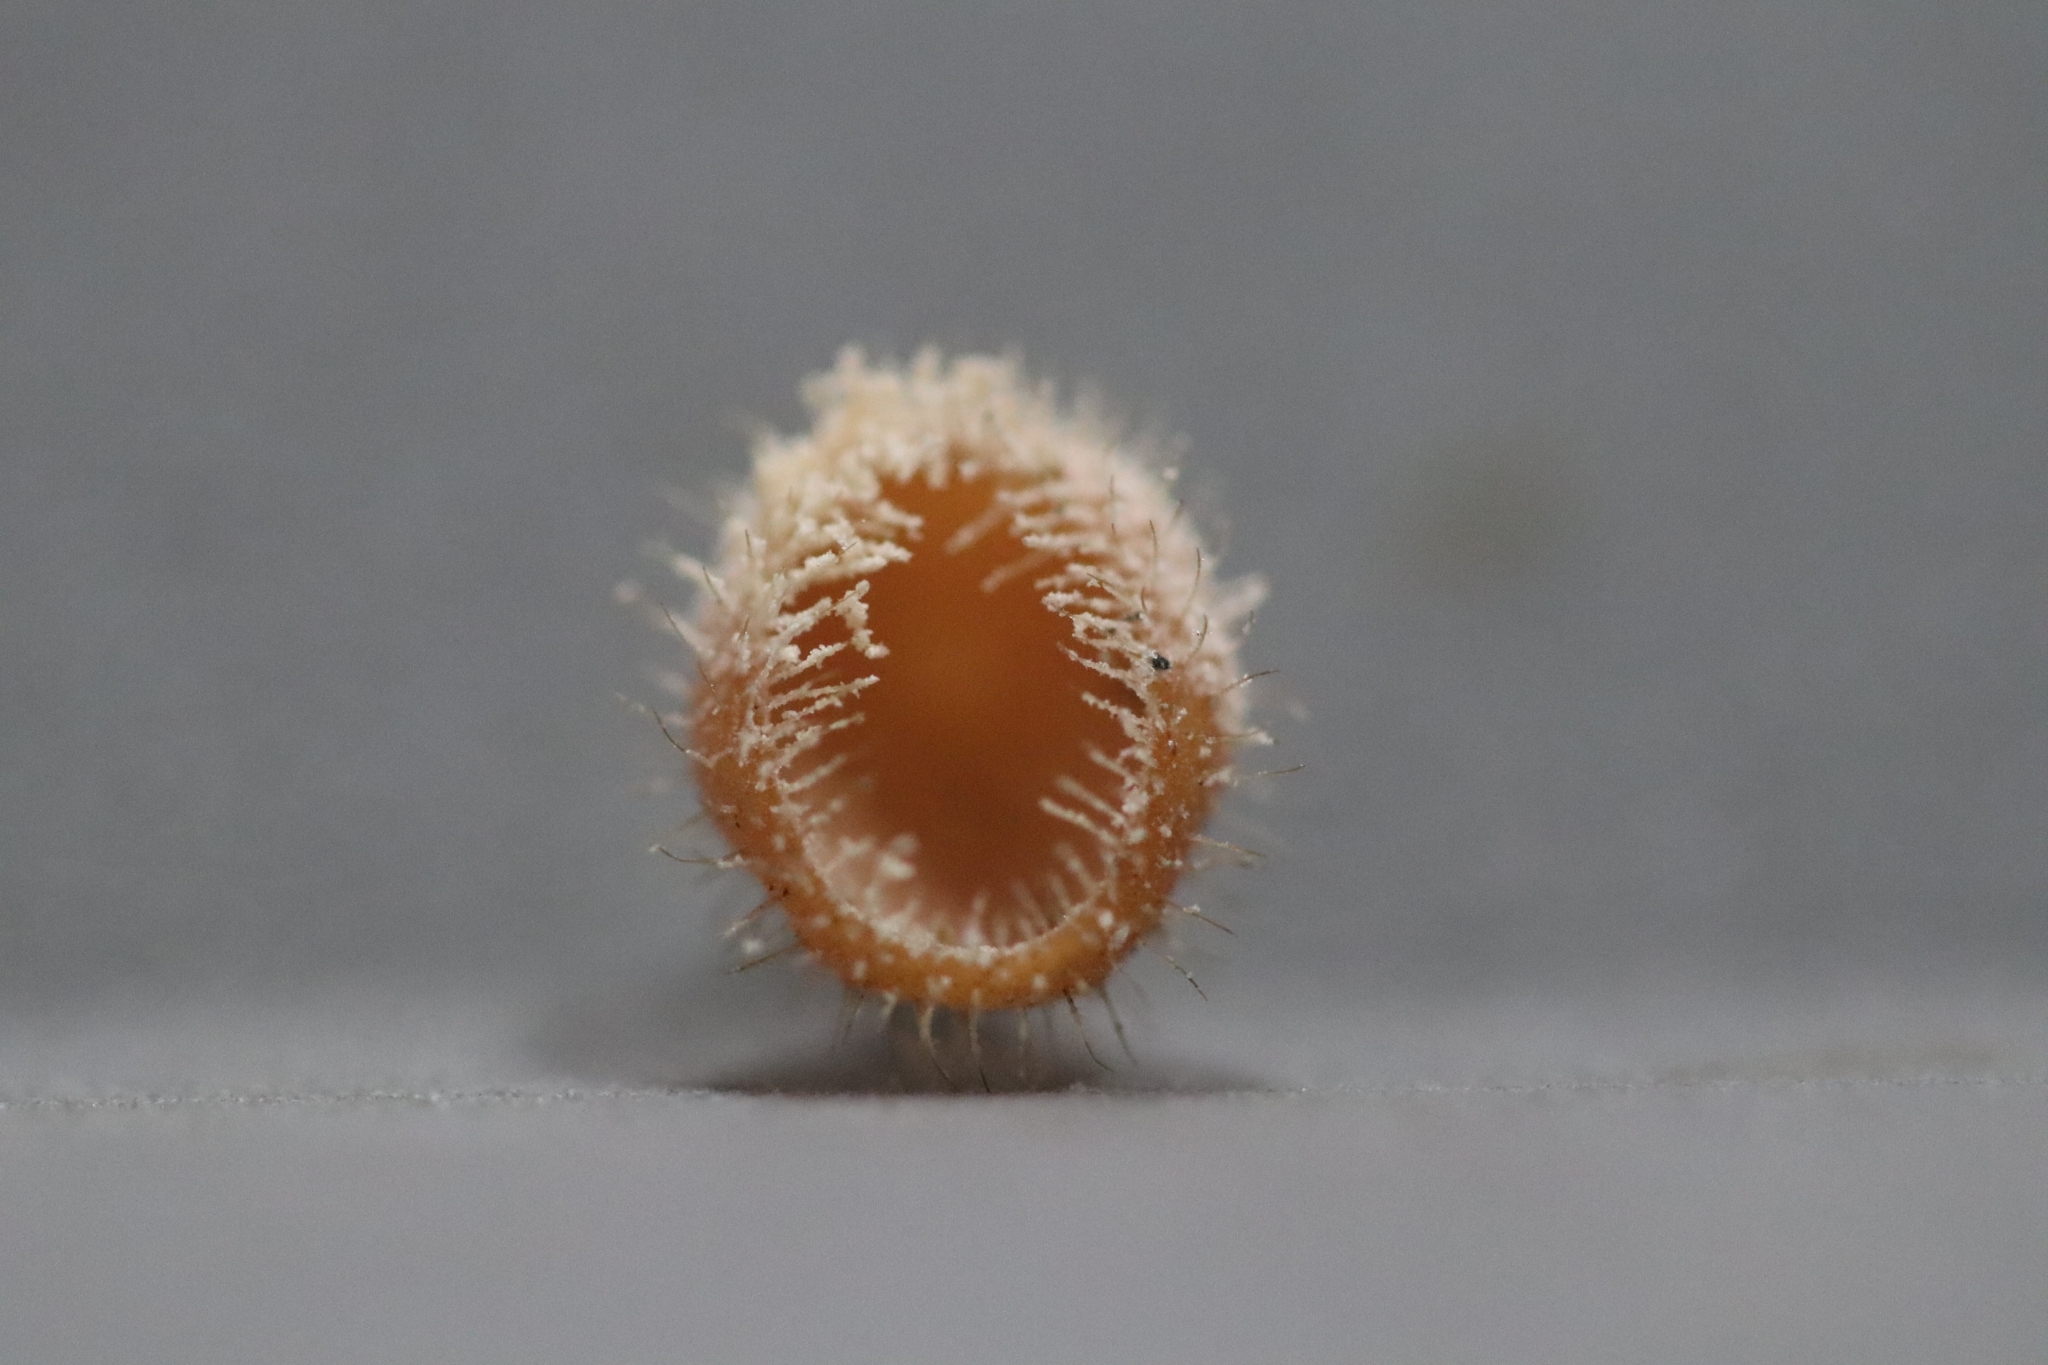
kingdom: Fungi
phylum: Ascomycota
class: Pezizomycetes
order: Pezizales
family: Sarcoscyphaceae
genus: Cookeina
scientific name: Cookeina tricholoma
